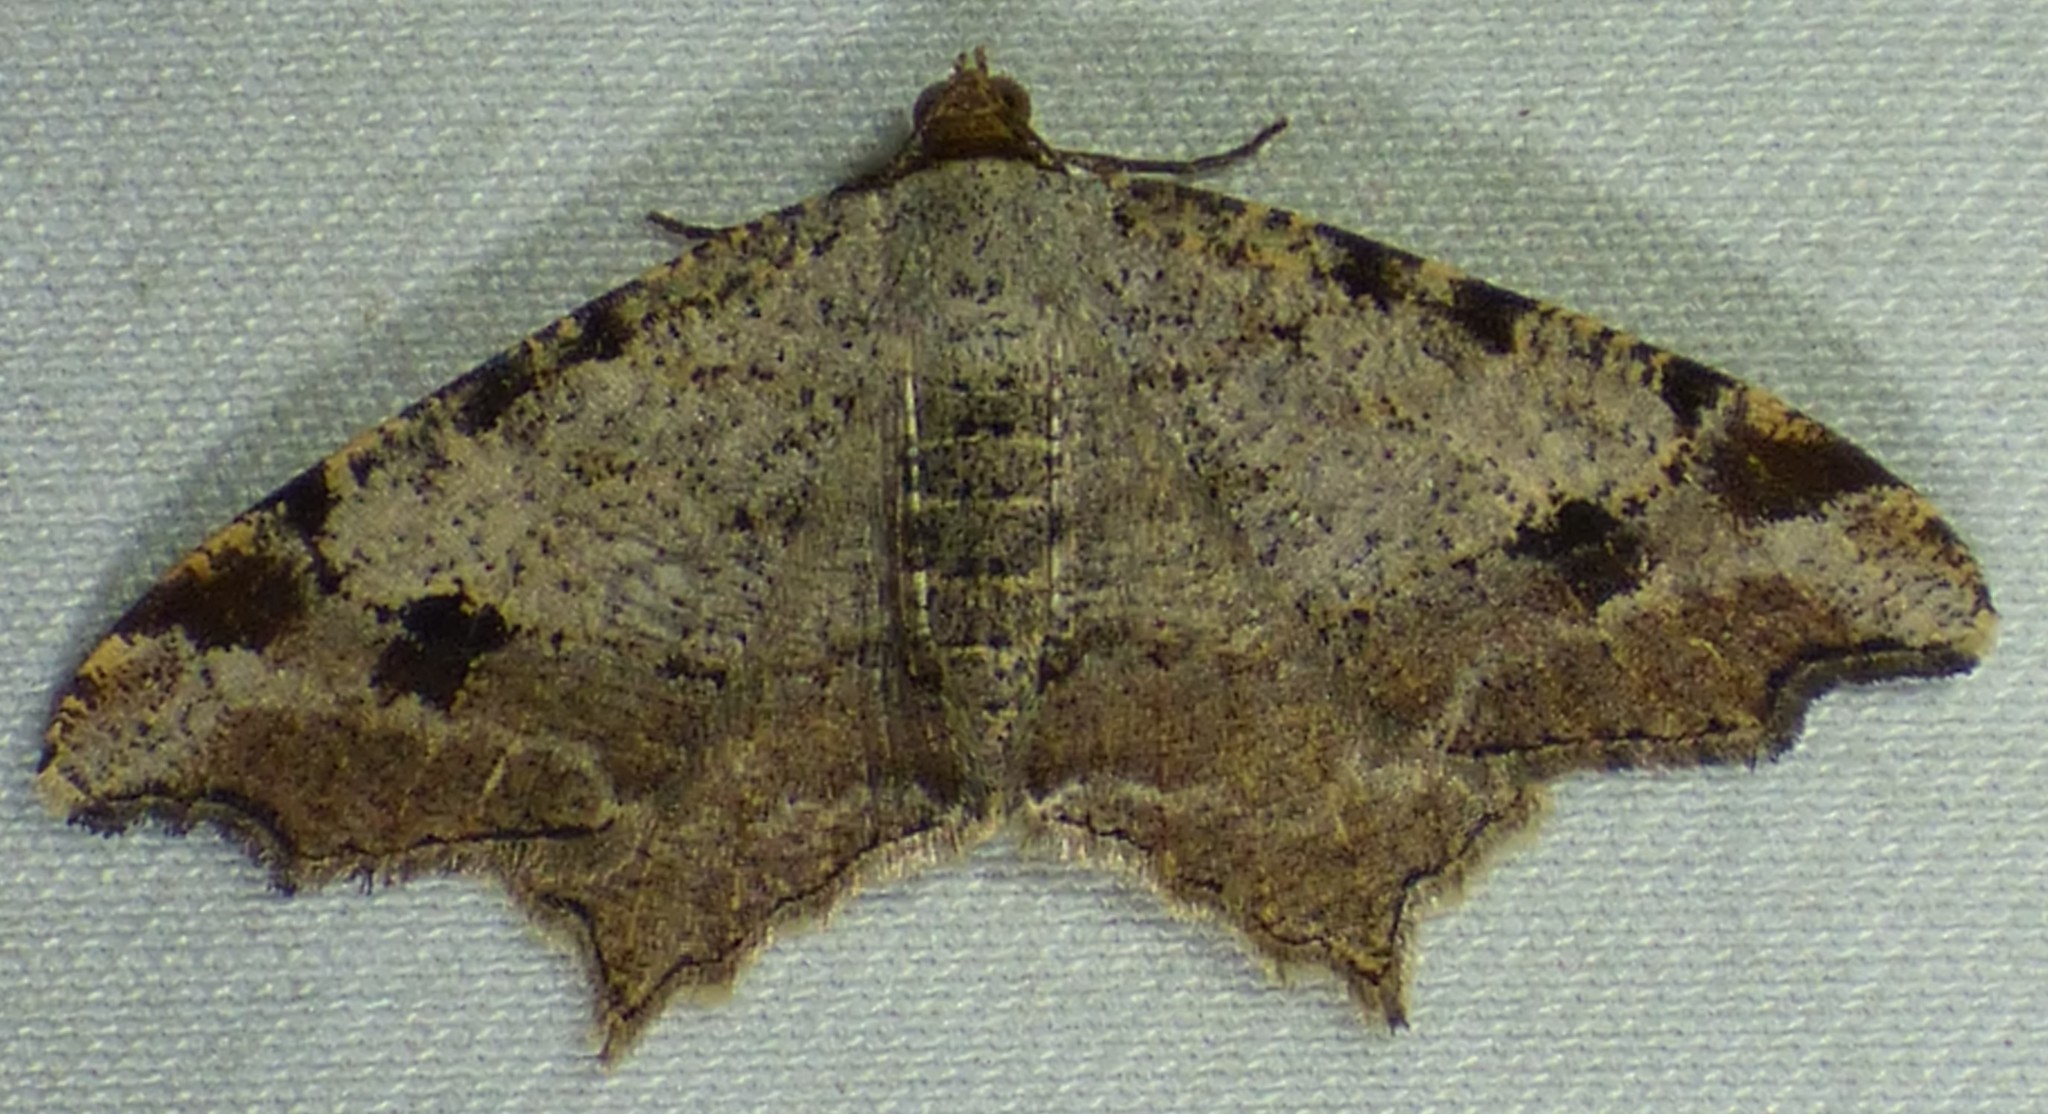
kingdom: Animalia
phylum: Arthropoda
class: Insecta
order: Lepidoptera
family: Geometridae
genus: Macaria
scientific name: Macaria aemulataria
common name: Common angle
